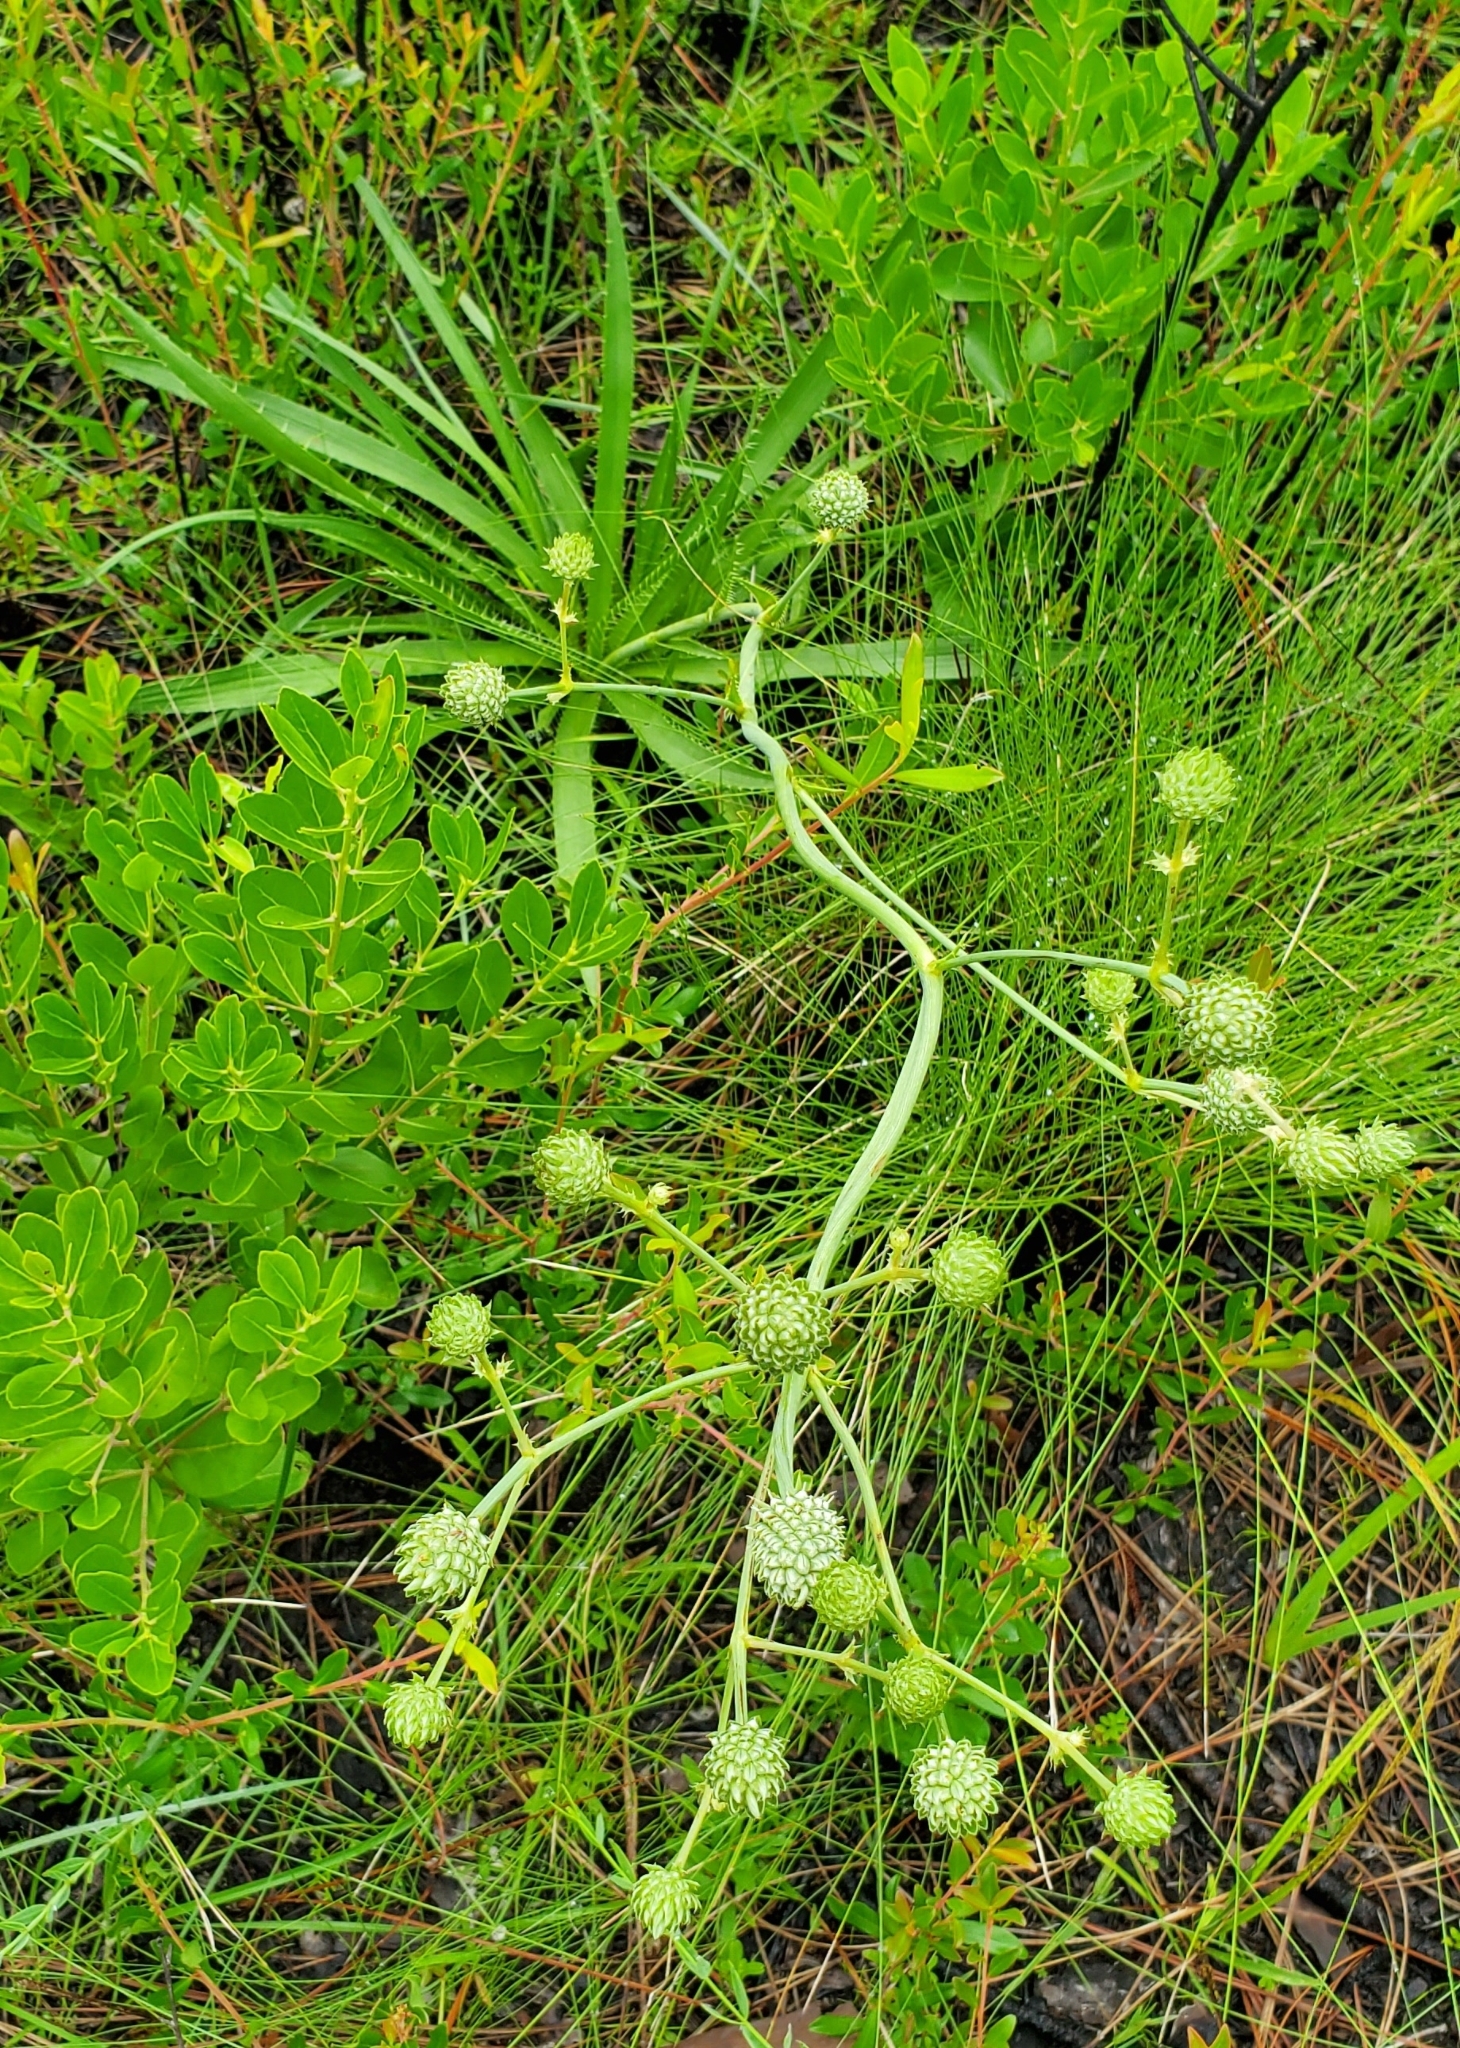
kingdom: Plantae
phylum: Tracheophyta
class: Magnoliopsida
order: Apiales
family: Apiaceae
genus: Eryngium
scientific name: Eryngium yuccifolium
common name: Button eryngo
